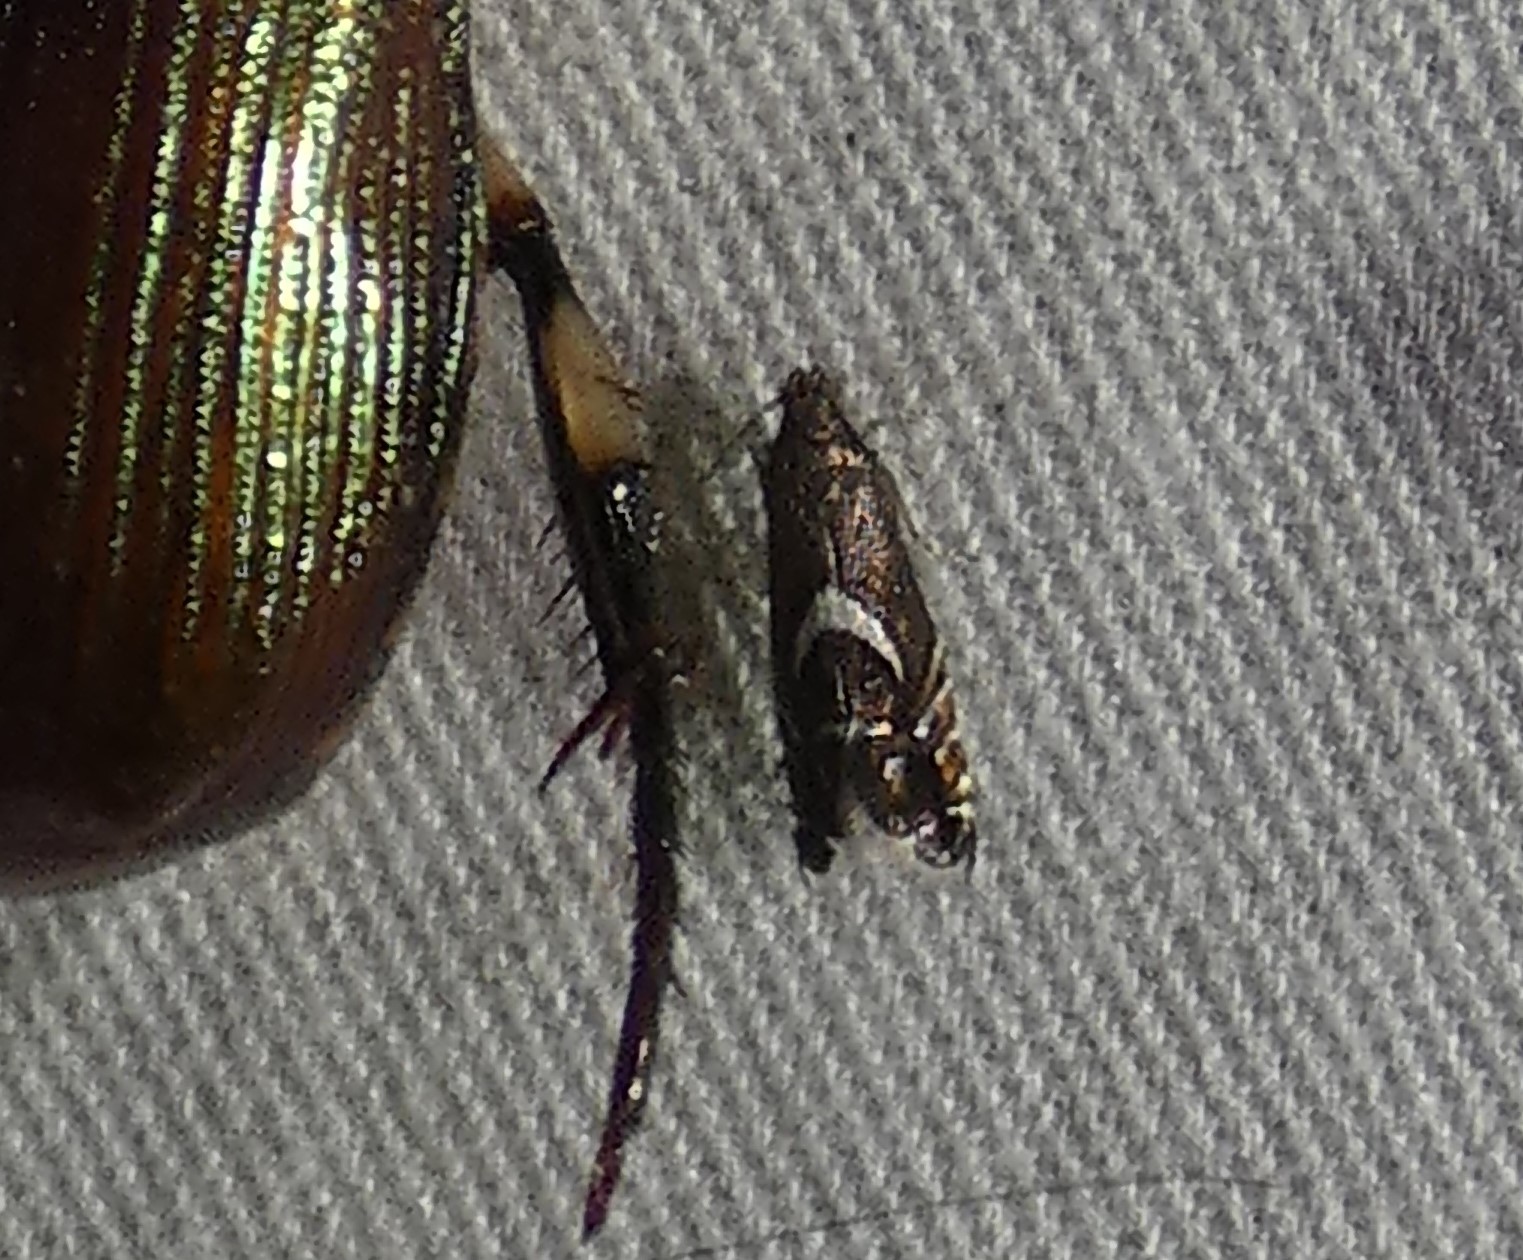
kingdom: Animalia
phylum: Arthropoda
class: Insecta
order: Lepidoptera
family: Glyphipterigidae
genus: Glyphipterix
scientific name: Glyphipterix Diploschizia impigritella
